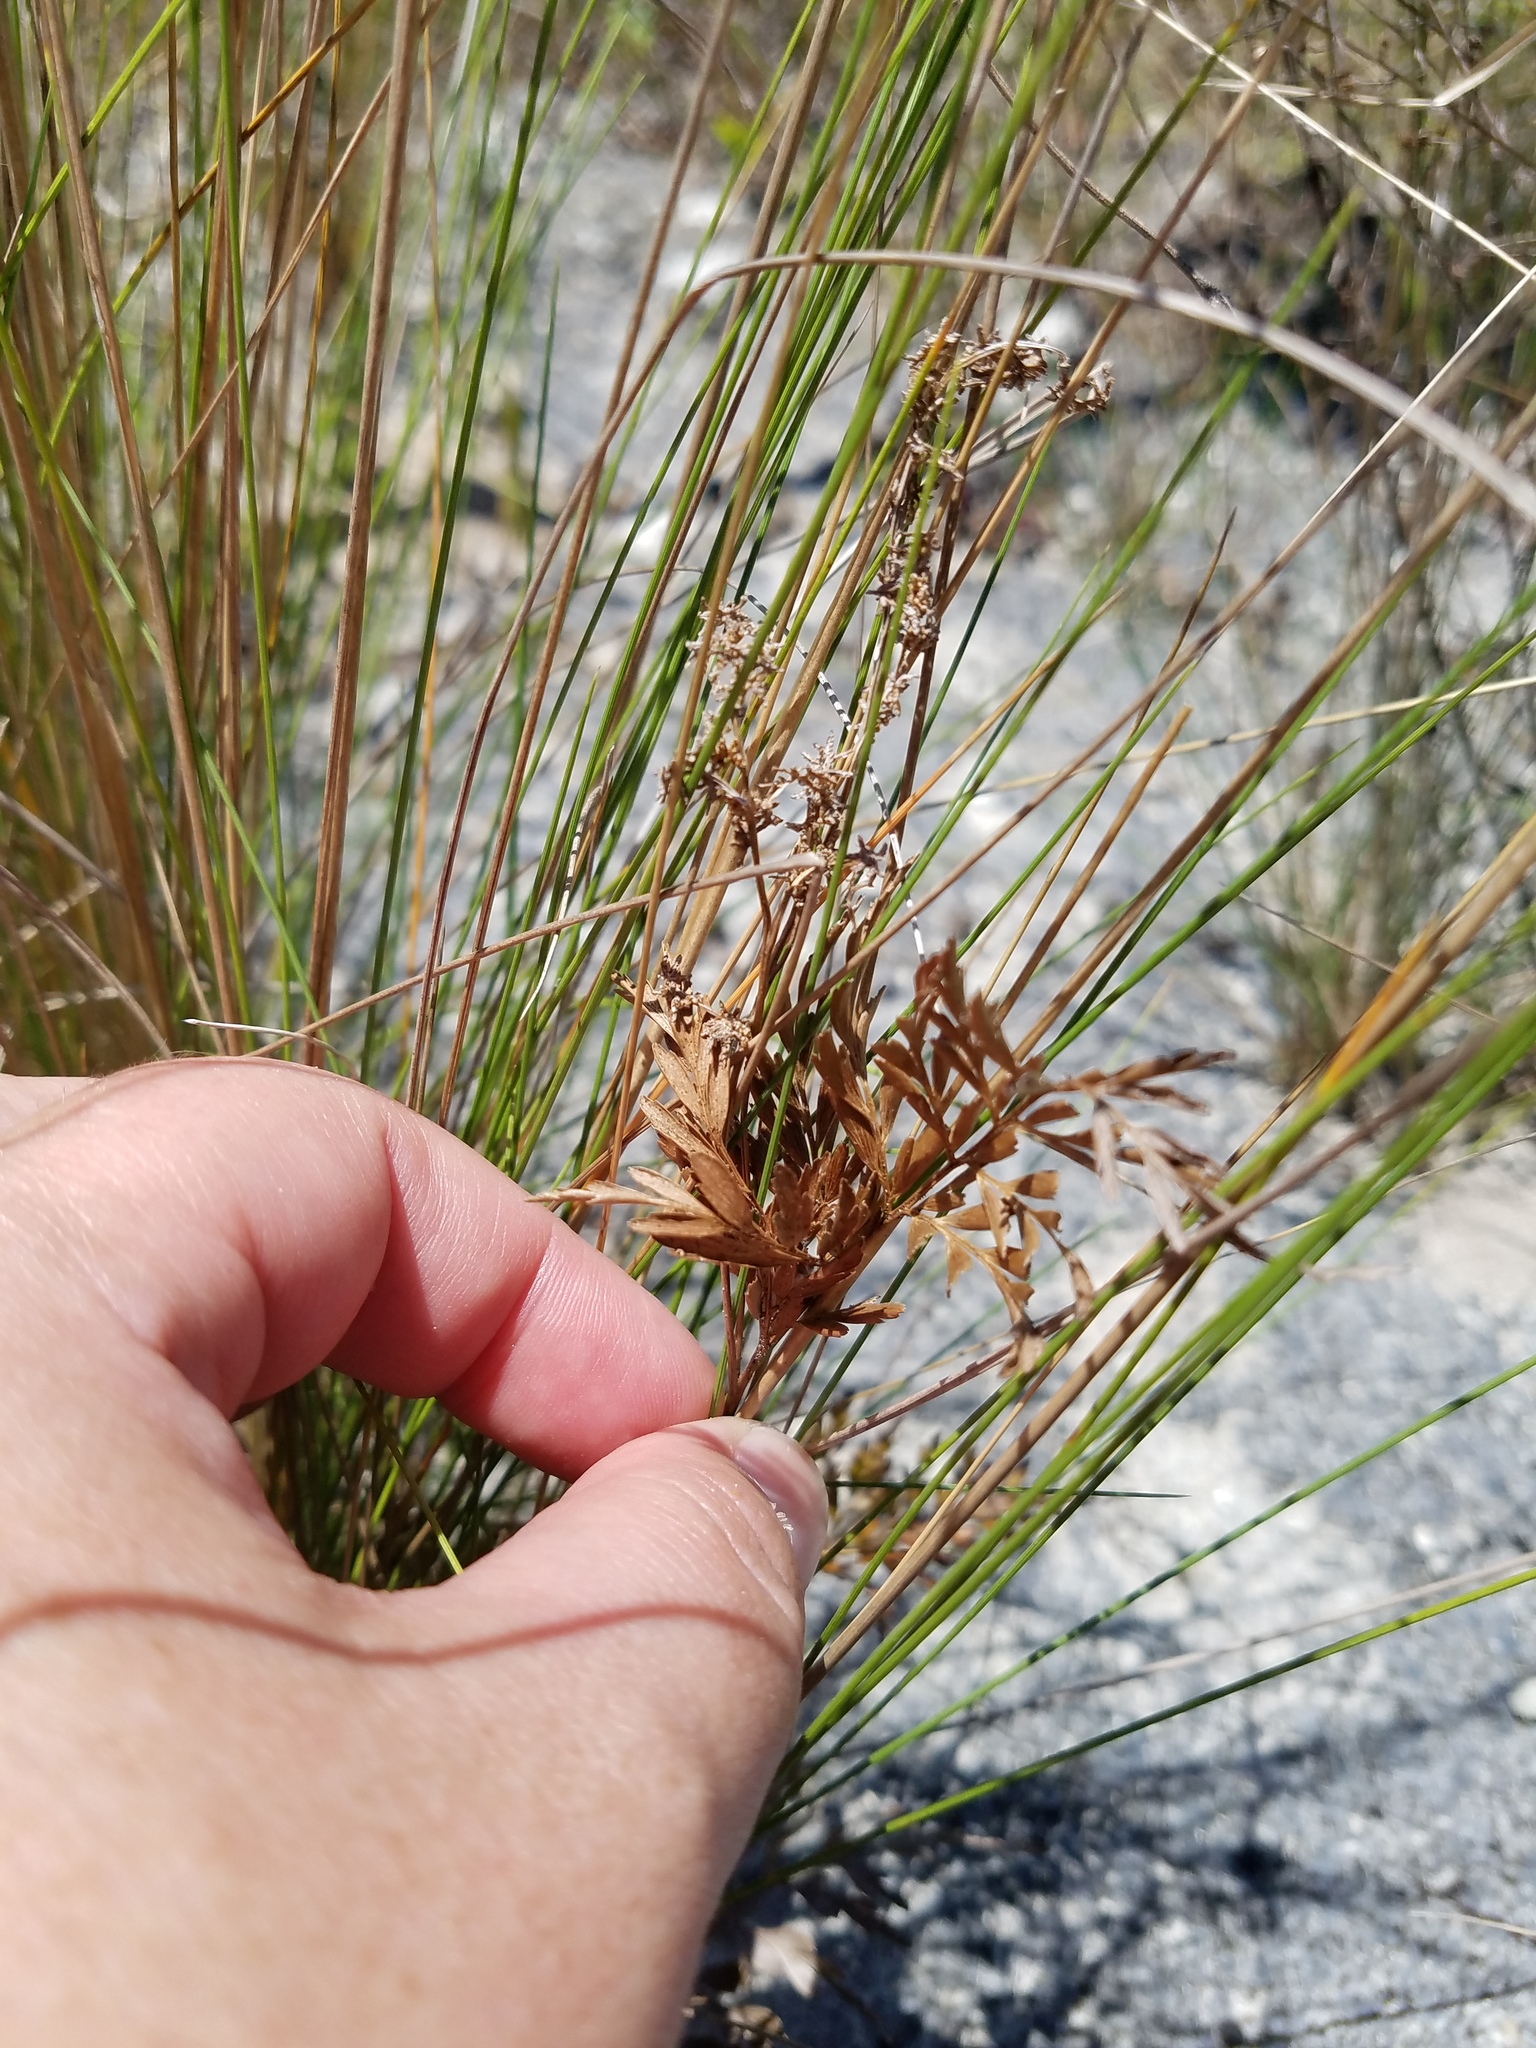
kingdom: Plantae
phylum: Tracheophyta
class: Polypodiopsida
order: Schizaeales
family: Anemiaceae
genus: Anemia
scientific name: Anemia adiantifolia
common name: Pine fern
